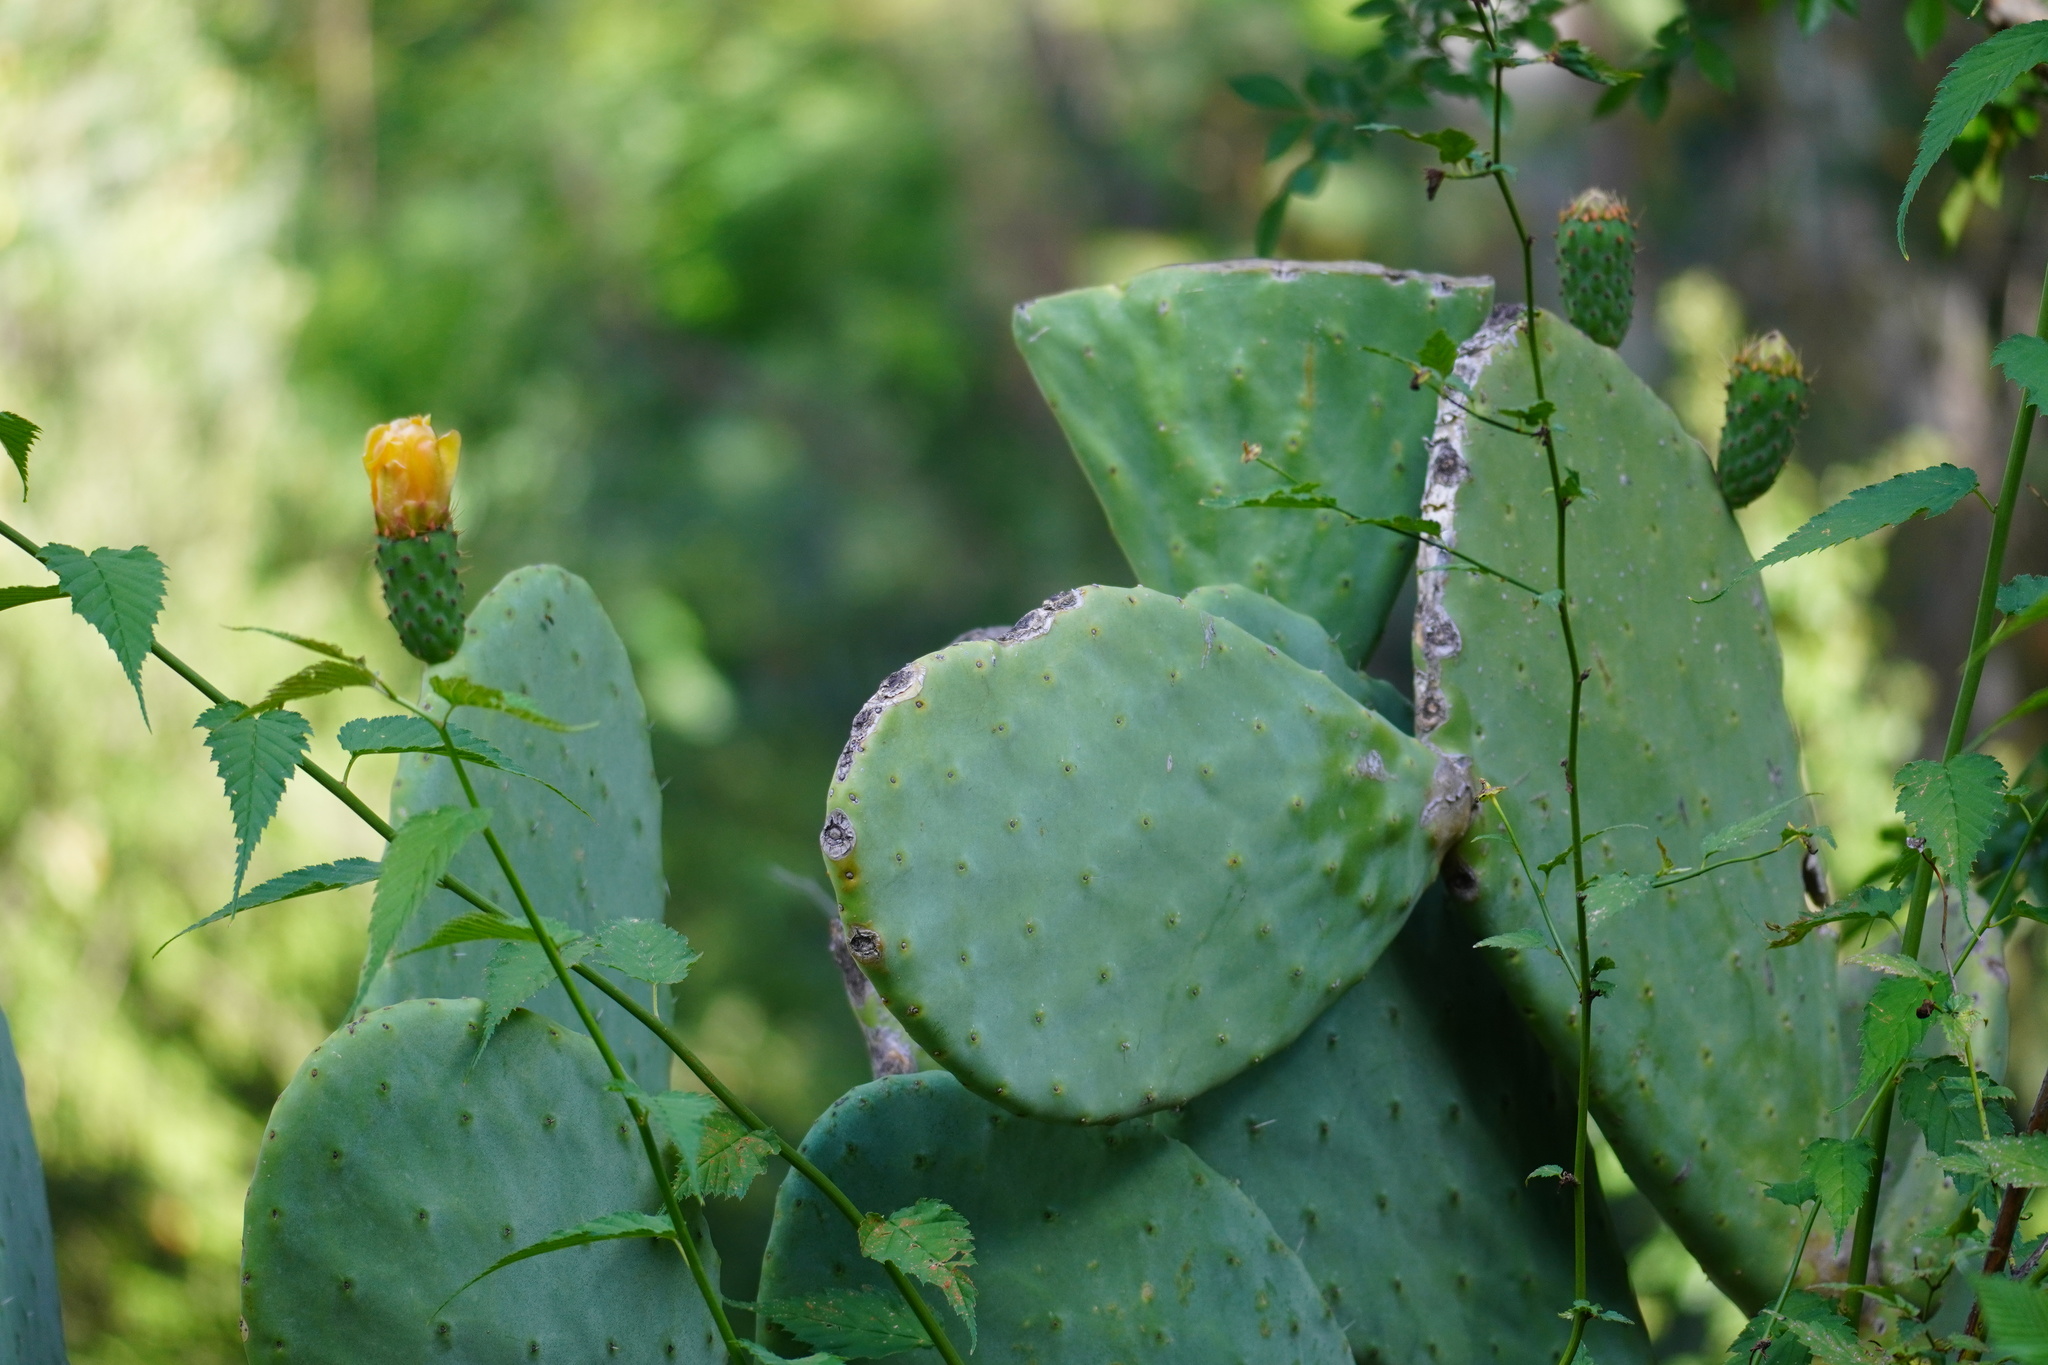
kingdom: Plantae
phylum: Tracheophyta
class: Magnoliopsida
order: Caryophyllales
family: Cactaceae
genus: Opuntia
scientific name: Opuntia ficus-indica
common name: Barbary fig
